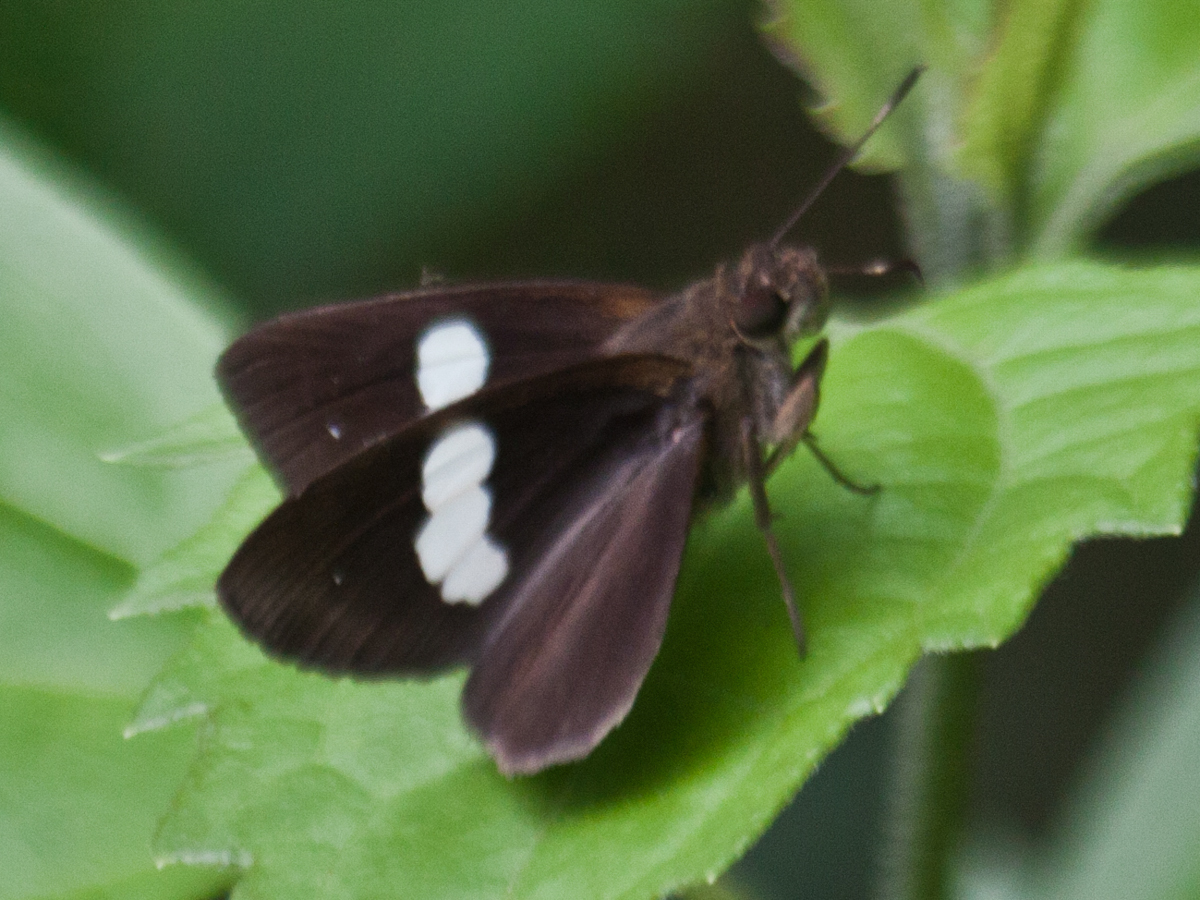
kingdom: Animalia
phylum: Arthropoda
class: Insecta
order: Lepidoptera
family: Hesperiidae
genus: Notocrypta
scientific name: Notocrypta paralysos
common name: Common banded demon
